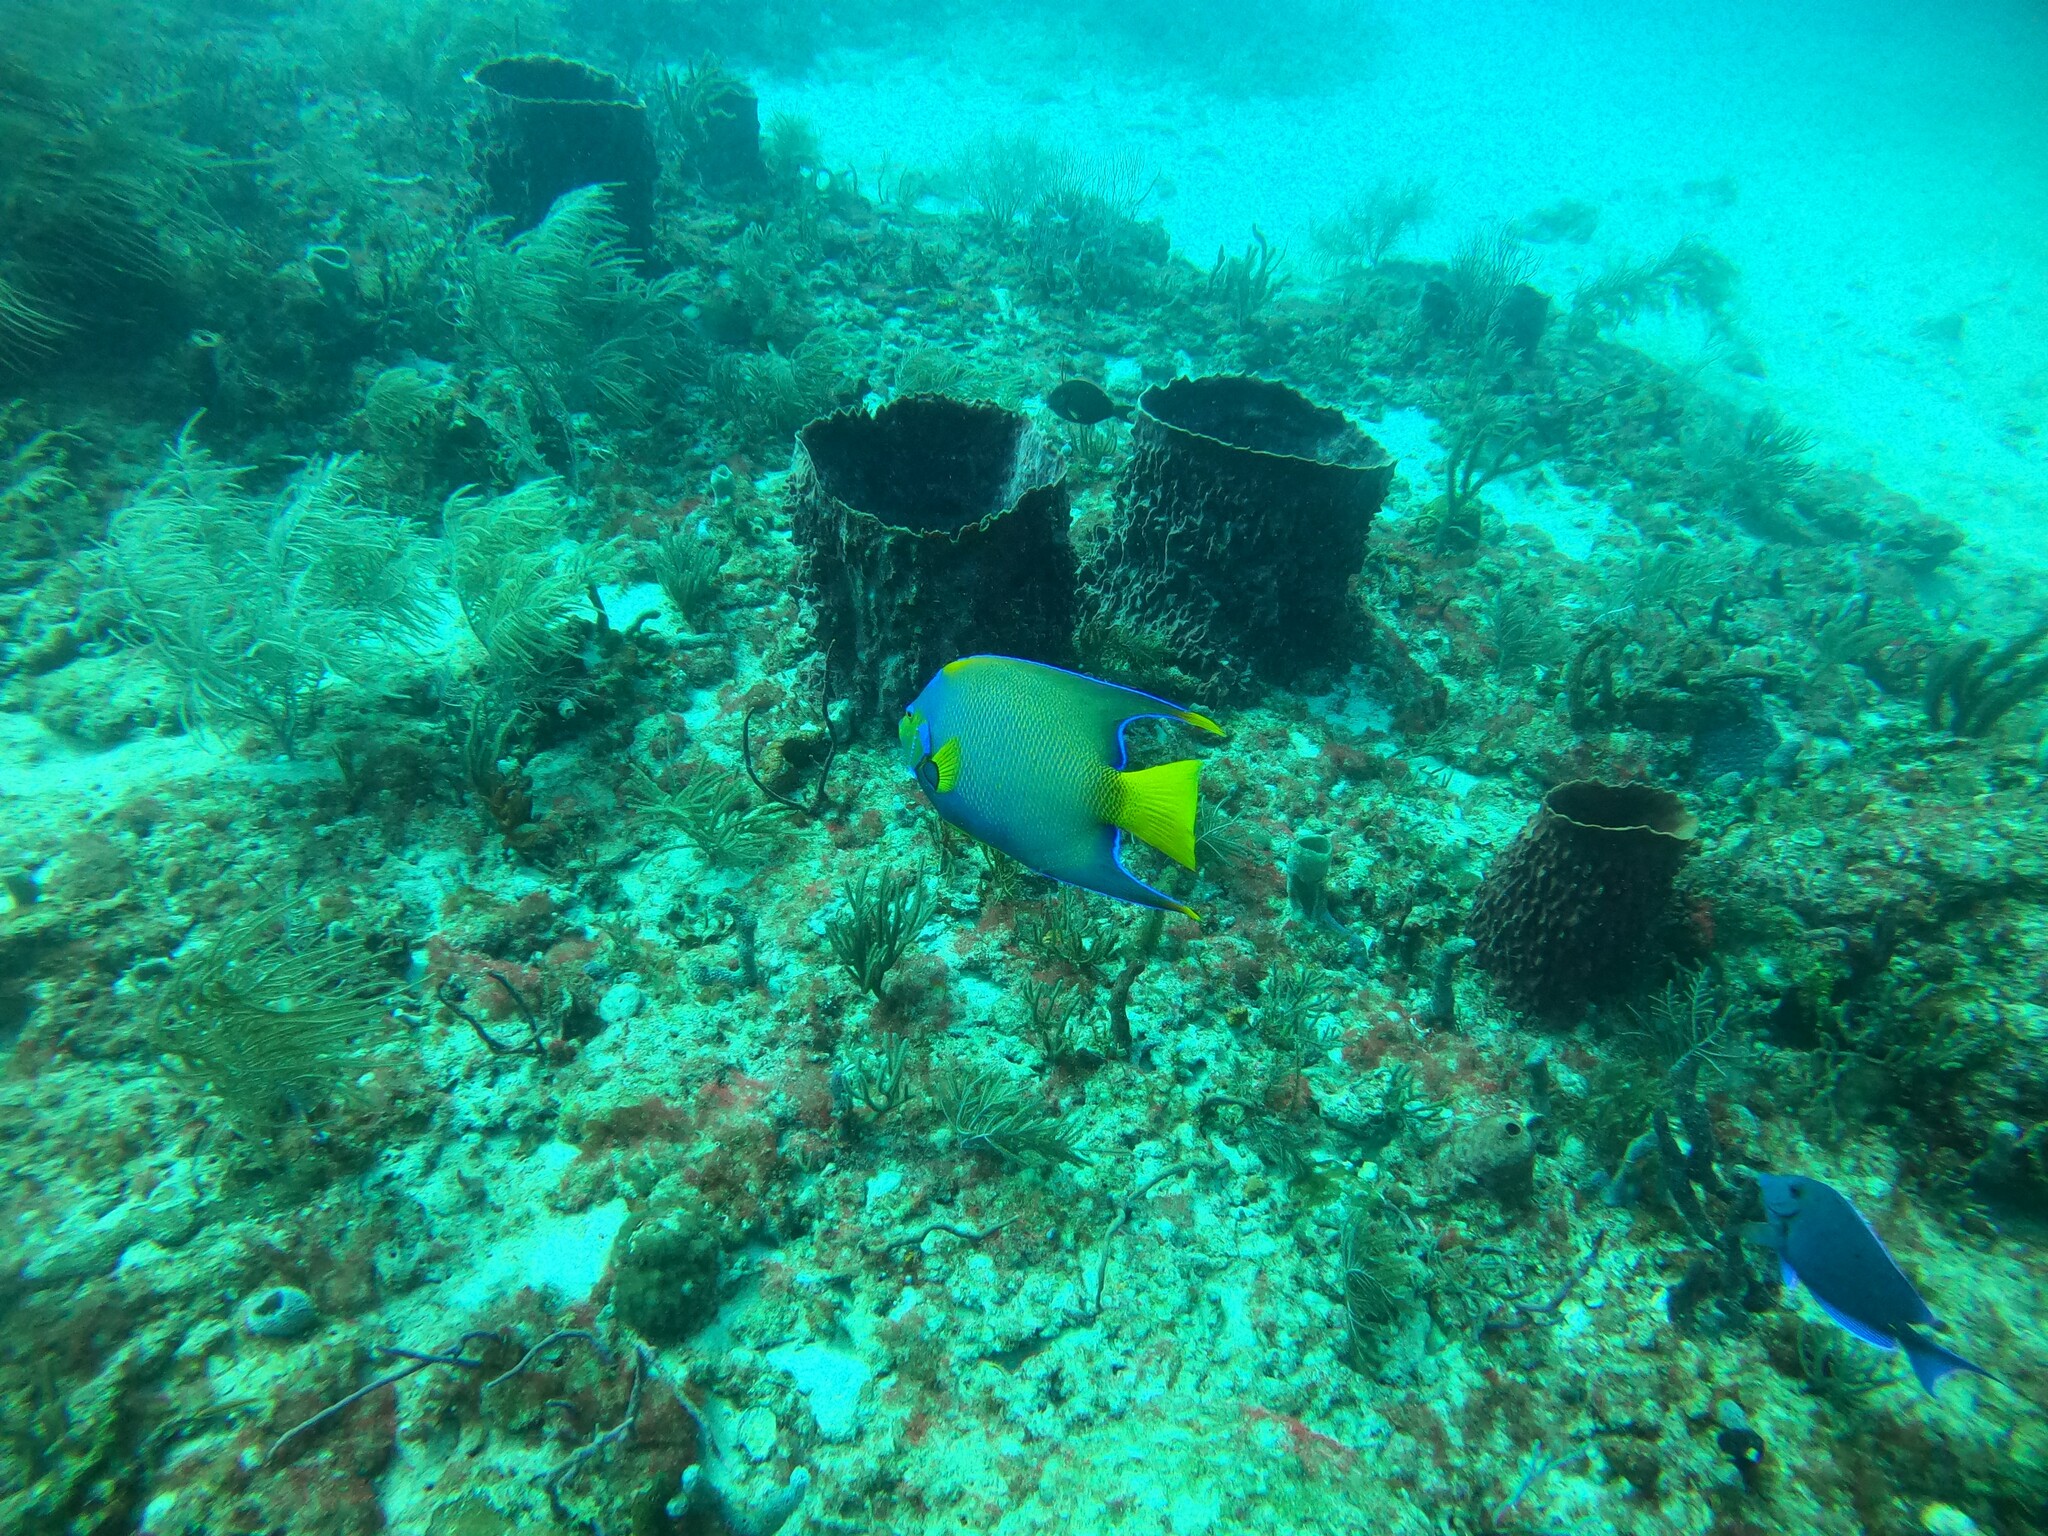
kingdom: Animalia
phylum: Chordata
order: Perciformes
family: Pomacanthidae
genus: Holacanthus
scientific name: Holacanthus ciliaris
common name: Queen angelfish
